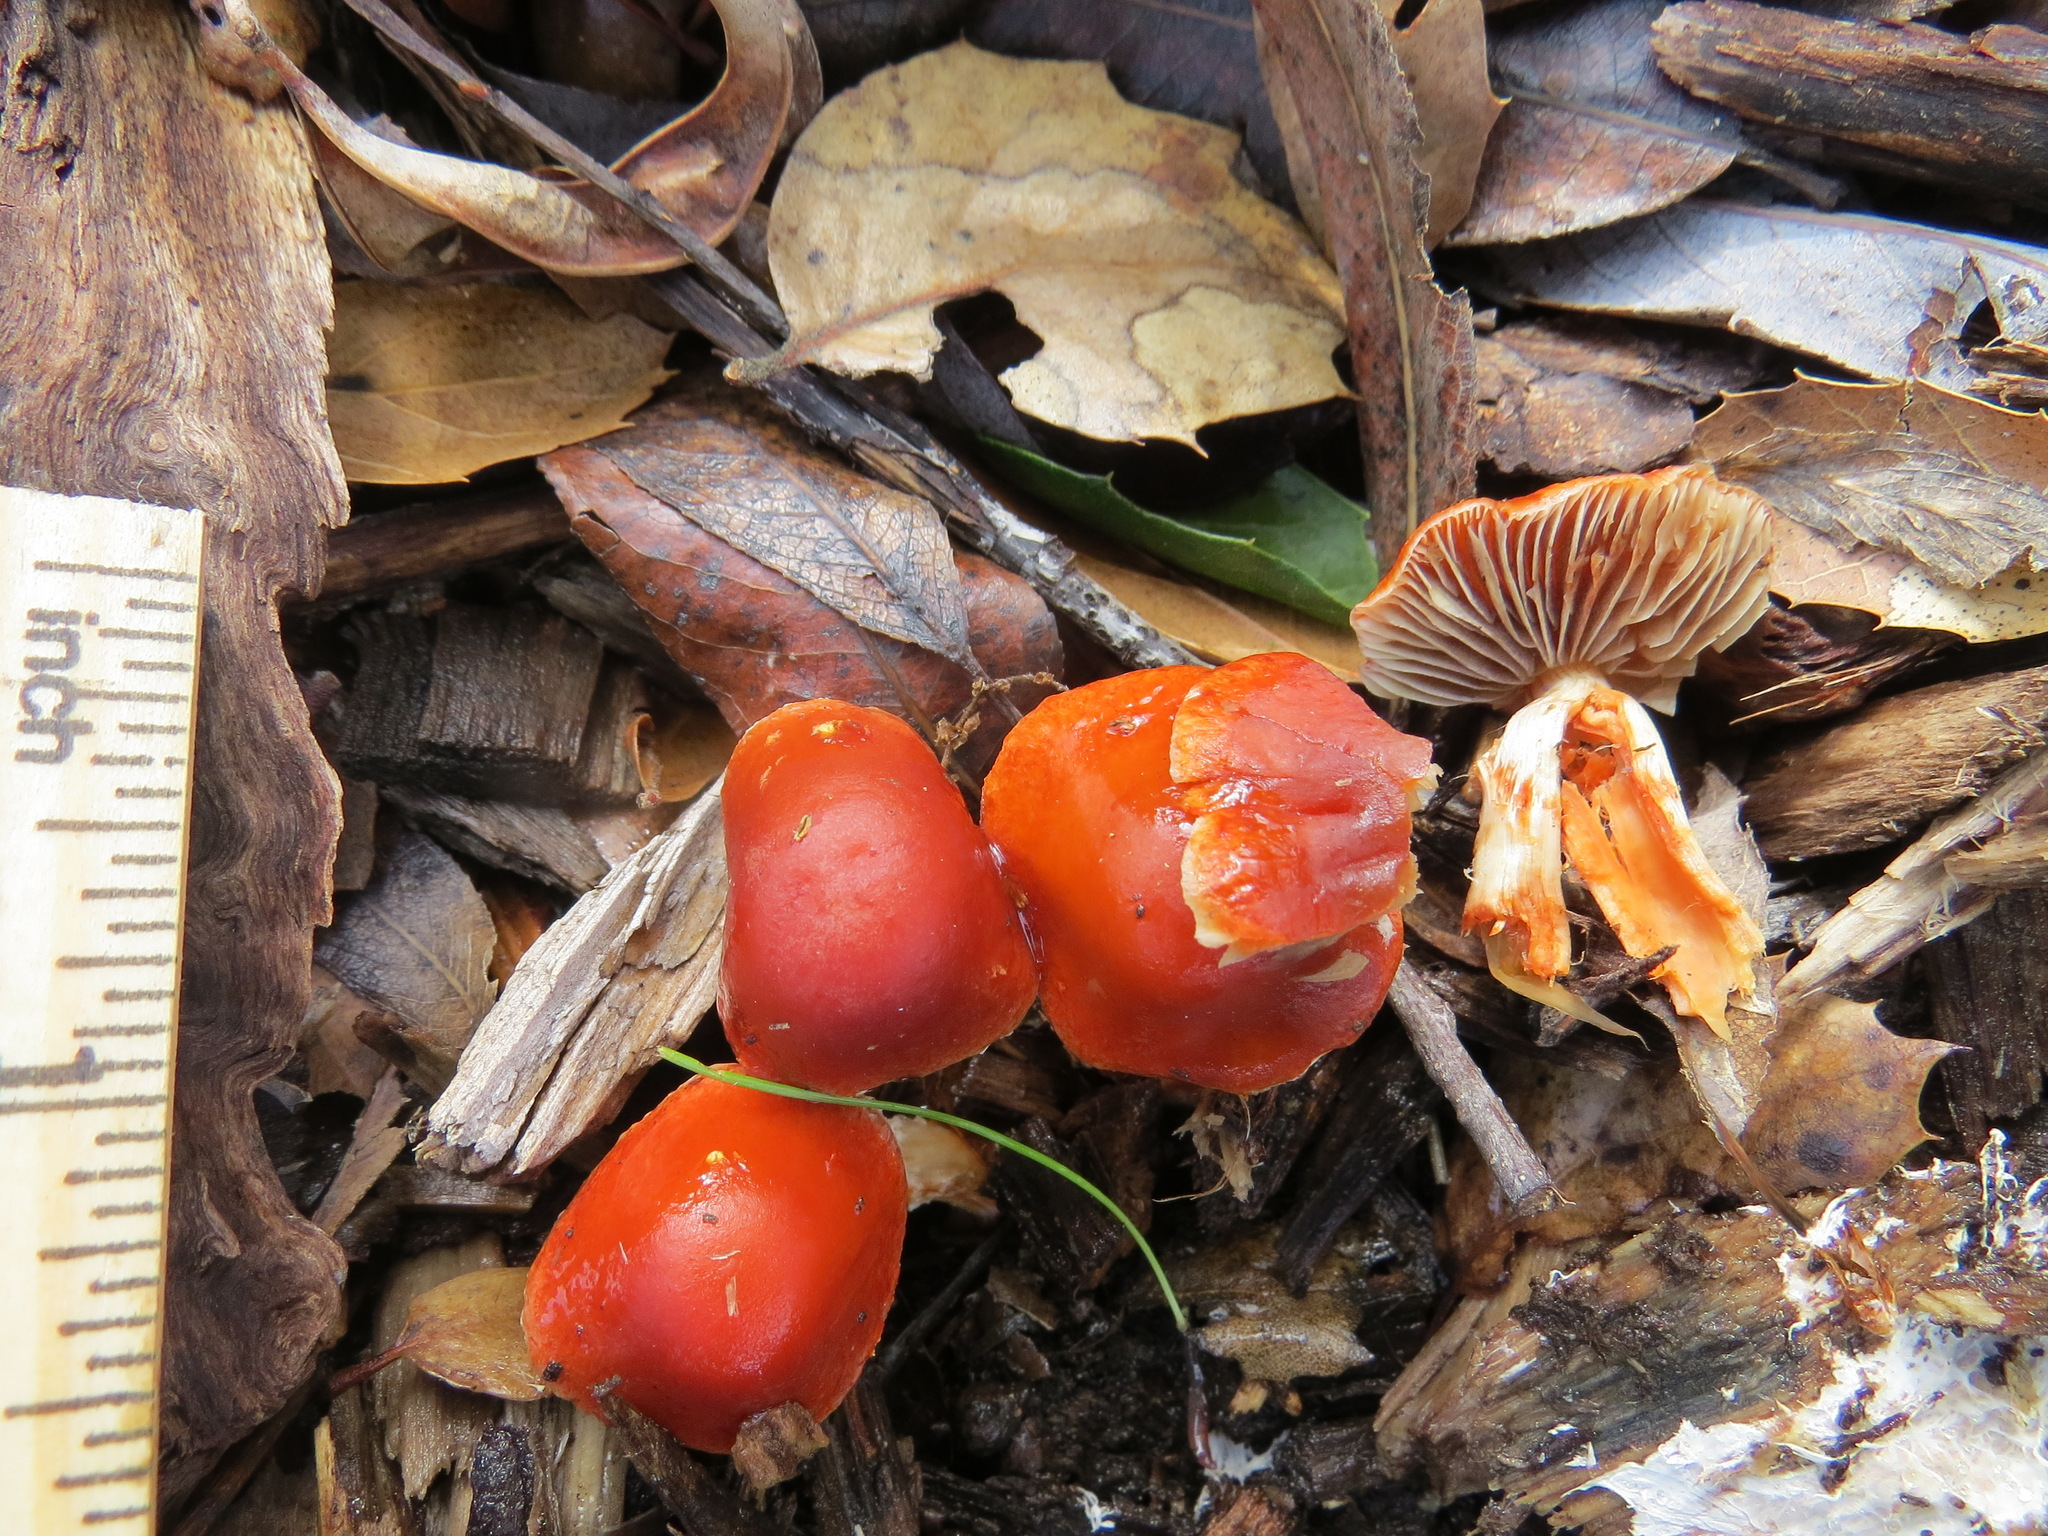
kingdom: Fungi
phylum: Basidiomycota
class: Agaricomycetes
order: Agaricales
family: Strophariaceae
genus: Leratiomyces
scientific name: Leratiomyces ceres
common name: Redlead roundhead
